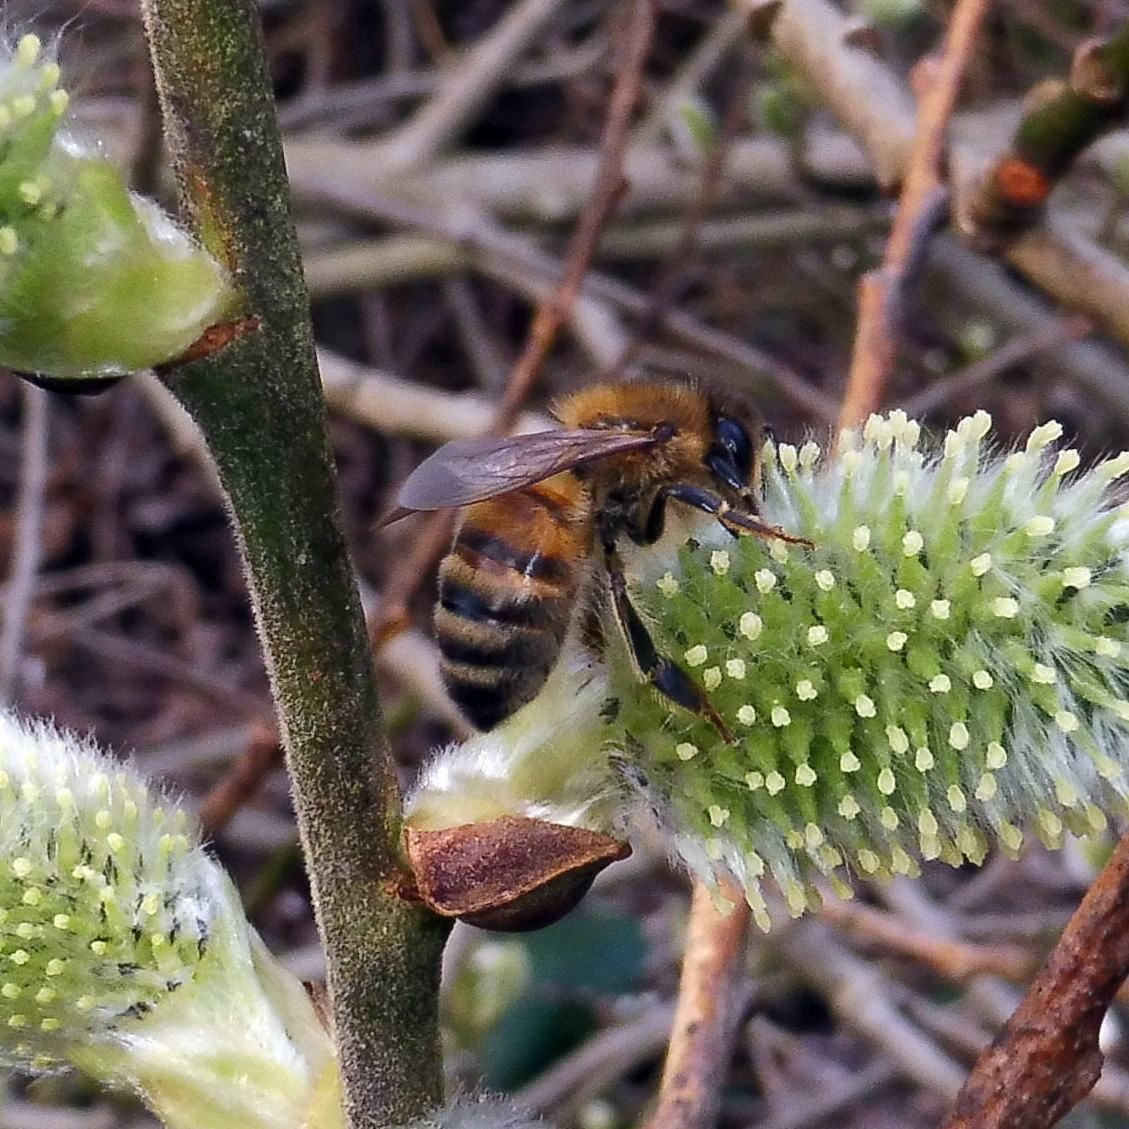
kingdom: Animalia
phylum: Arthropoda
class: Insecta
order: Hymenoptera
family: Apidae
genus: Apis
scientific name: Apis mellifera
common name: Honey bee
